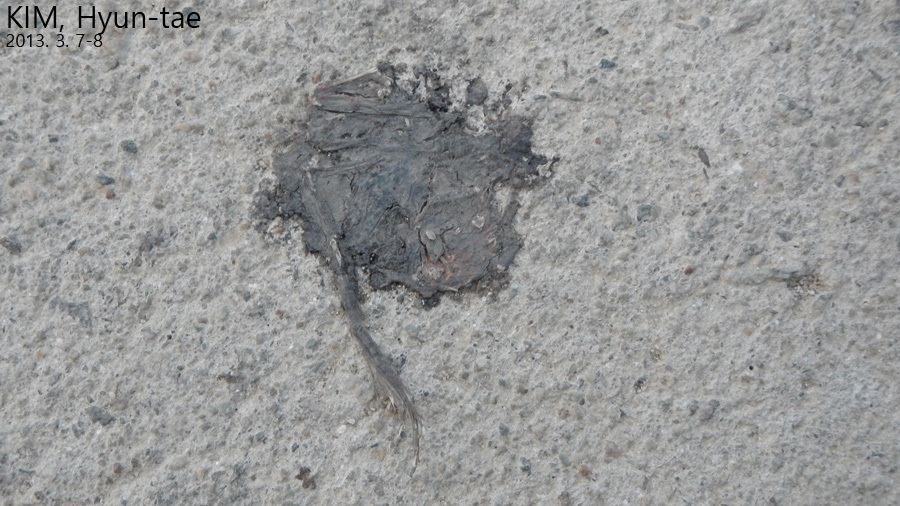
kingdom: Animalia
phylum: Chordata
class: Amphibia
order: Anura
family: Ranidae
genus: Rana
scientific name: Rana uenoi
